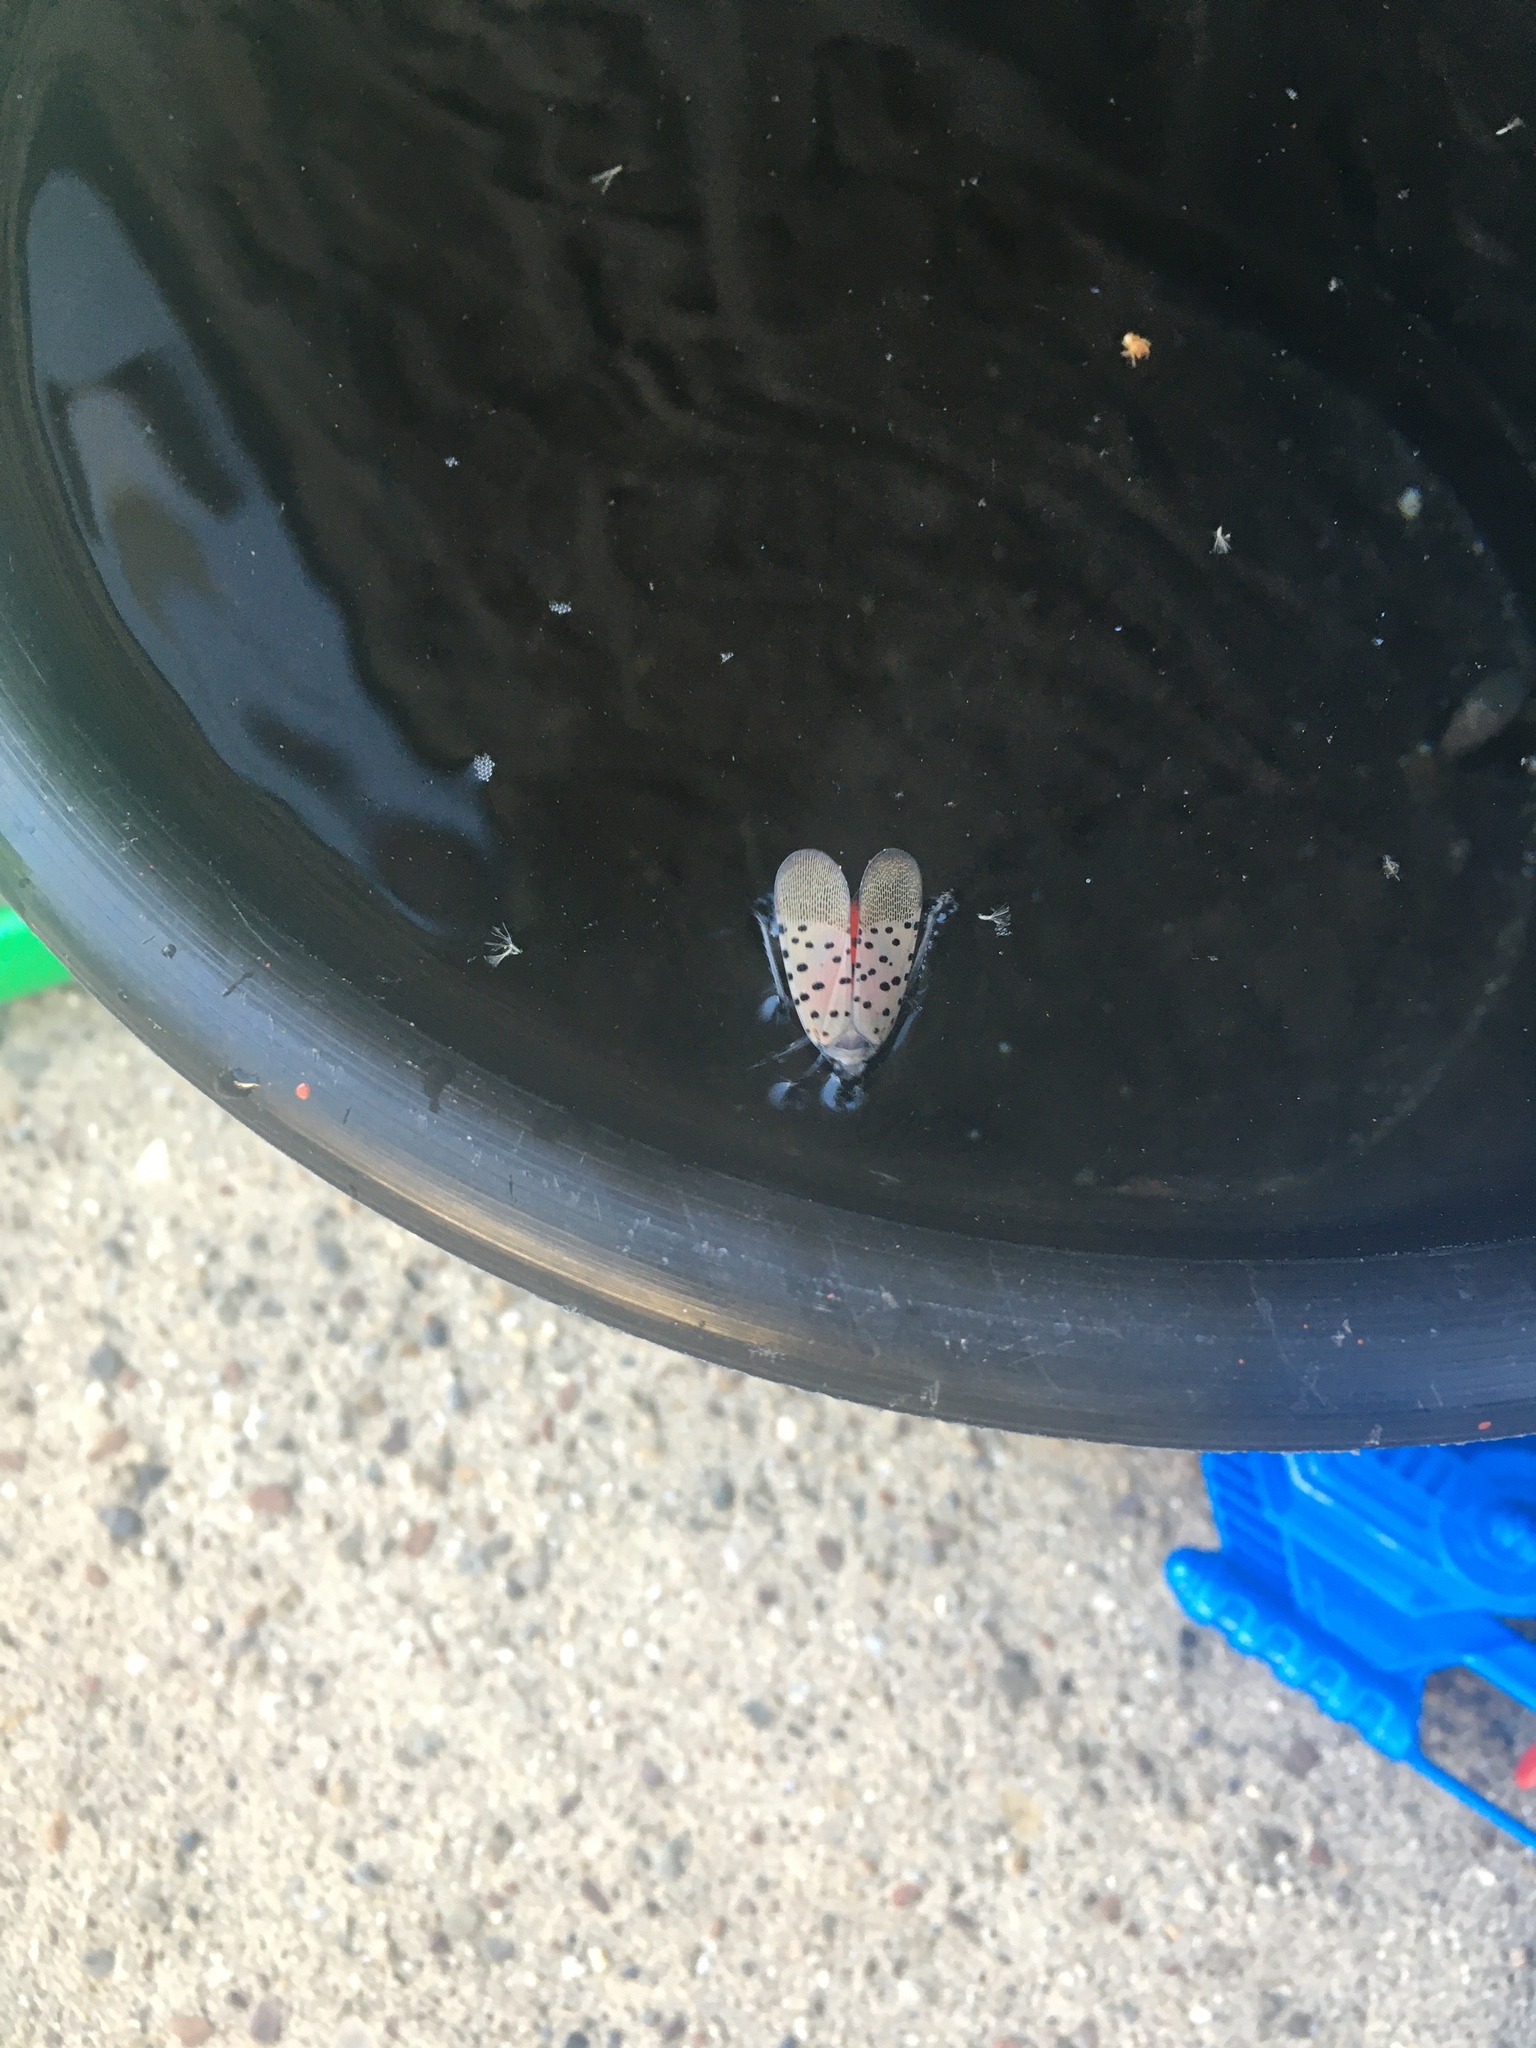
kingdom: Animalia
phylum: Arthropoda
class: Insecta
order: Hemiptera
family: Fulgoridae
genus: Lycorma
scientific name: Lycorma delicatula
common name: Spotted lanternfly
